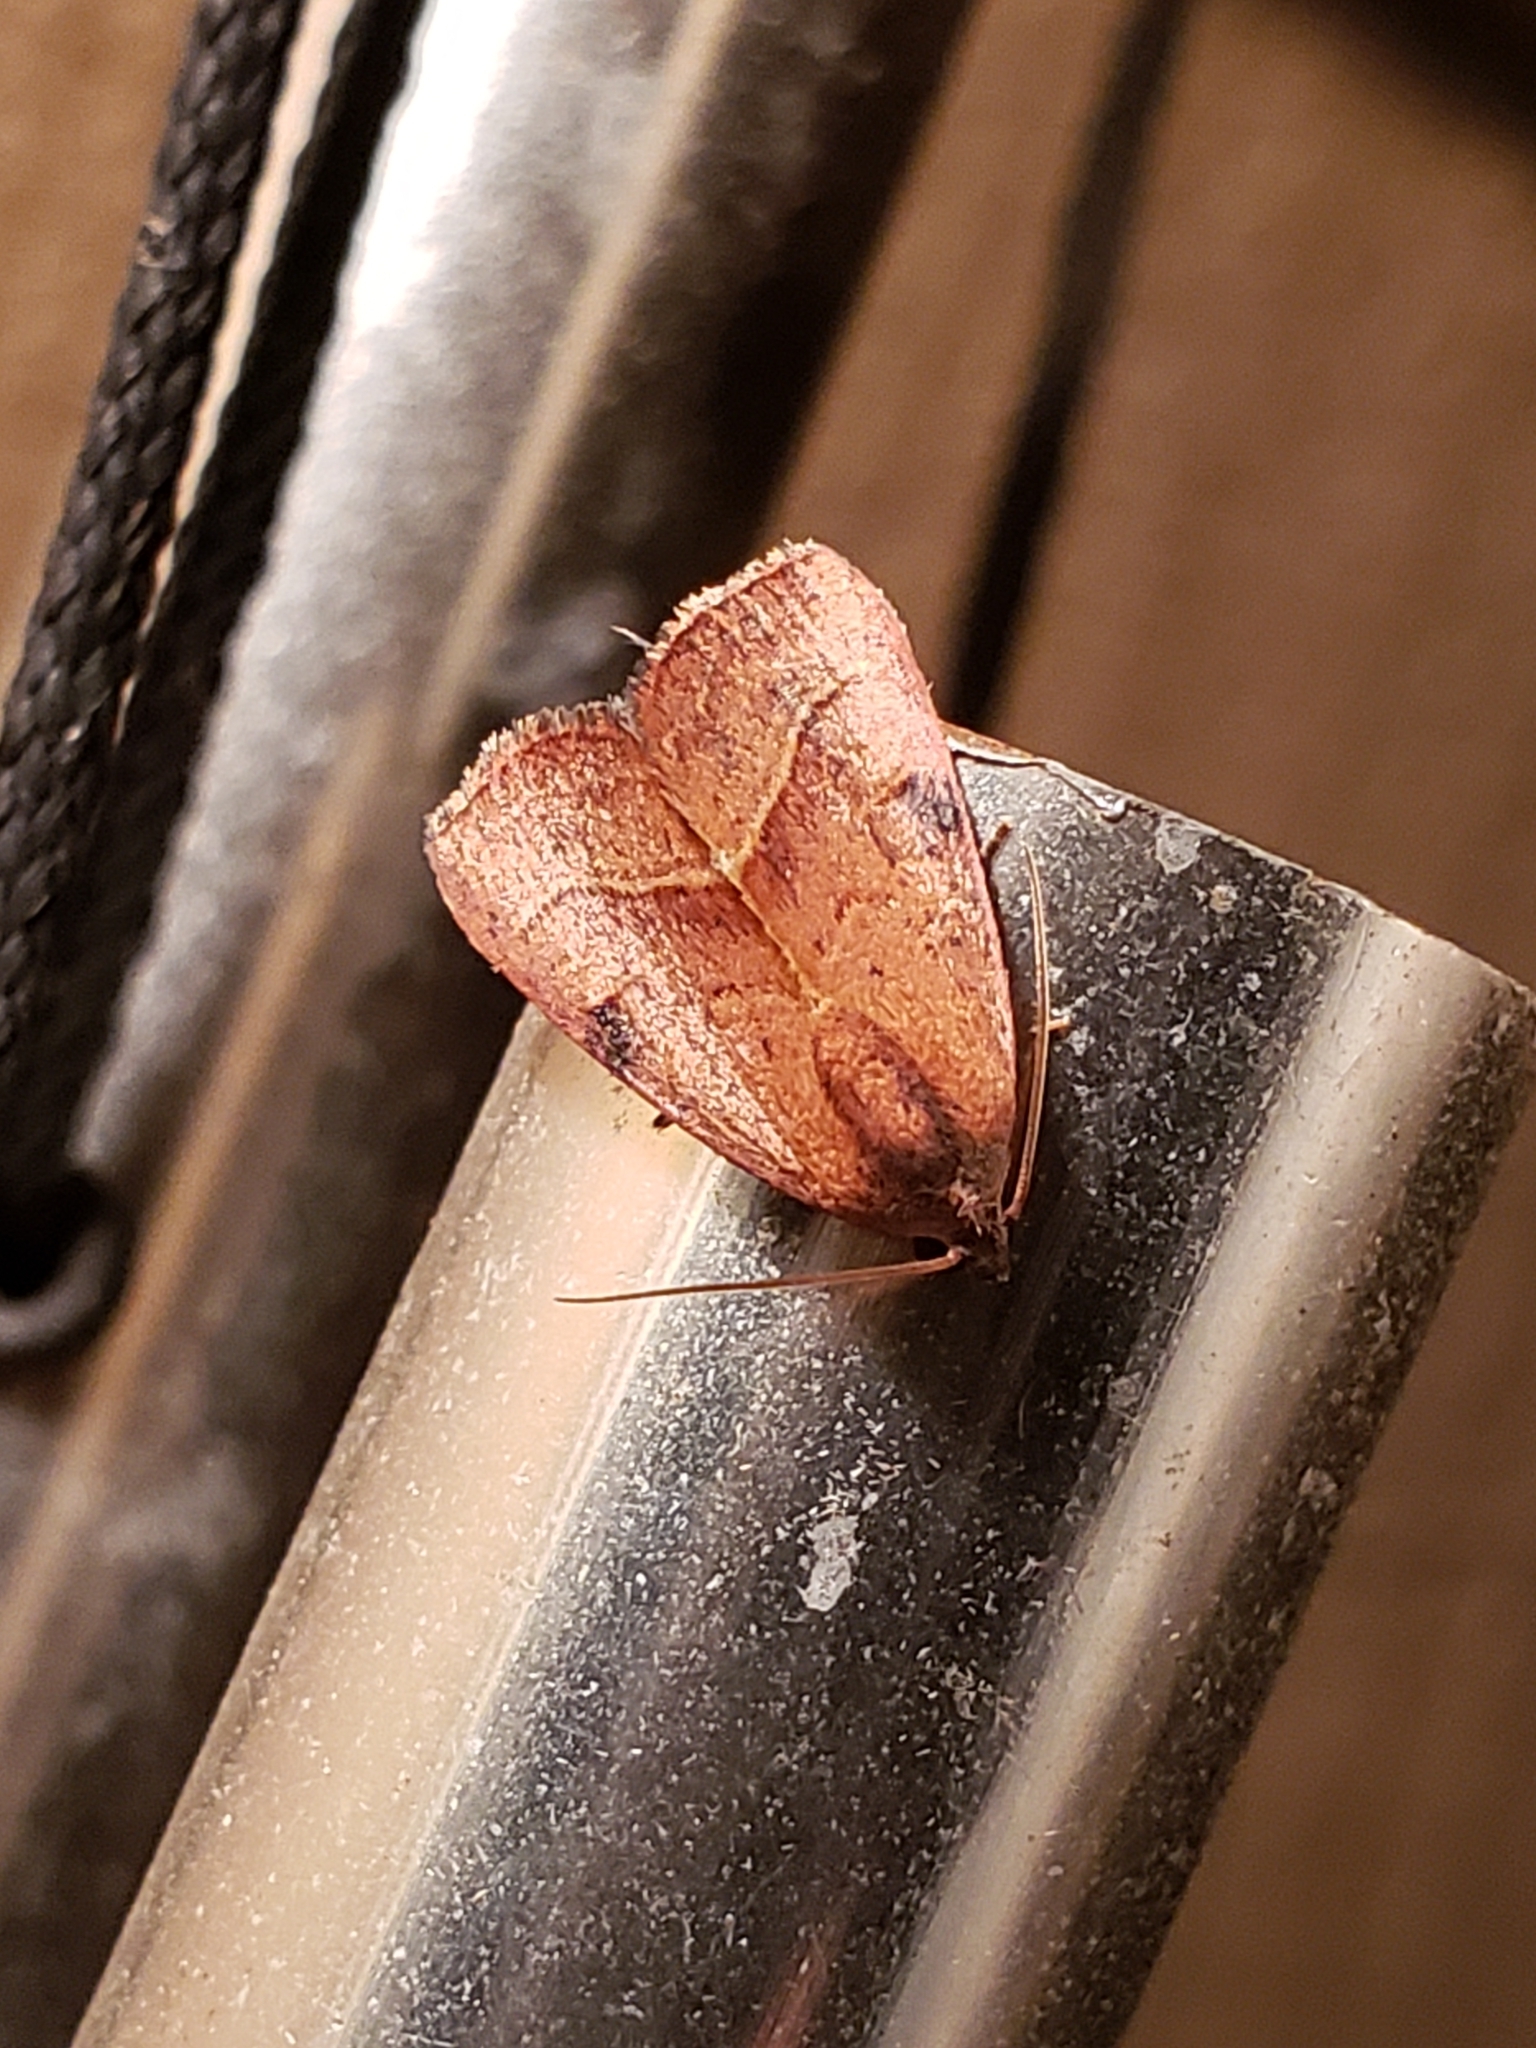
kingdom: Animalia
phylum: Arthropoda
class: Insecta
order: Lepidoptera
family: Noctuidae
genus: Galgula
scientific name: Galgula partita
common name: Wedgeling
